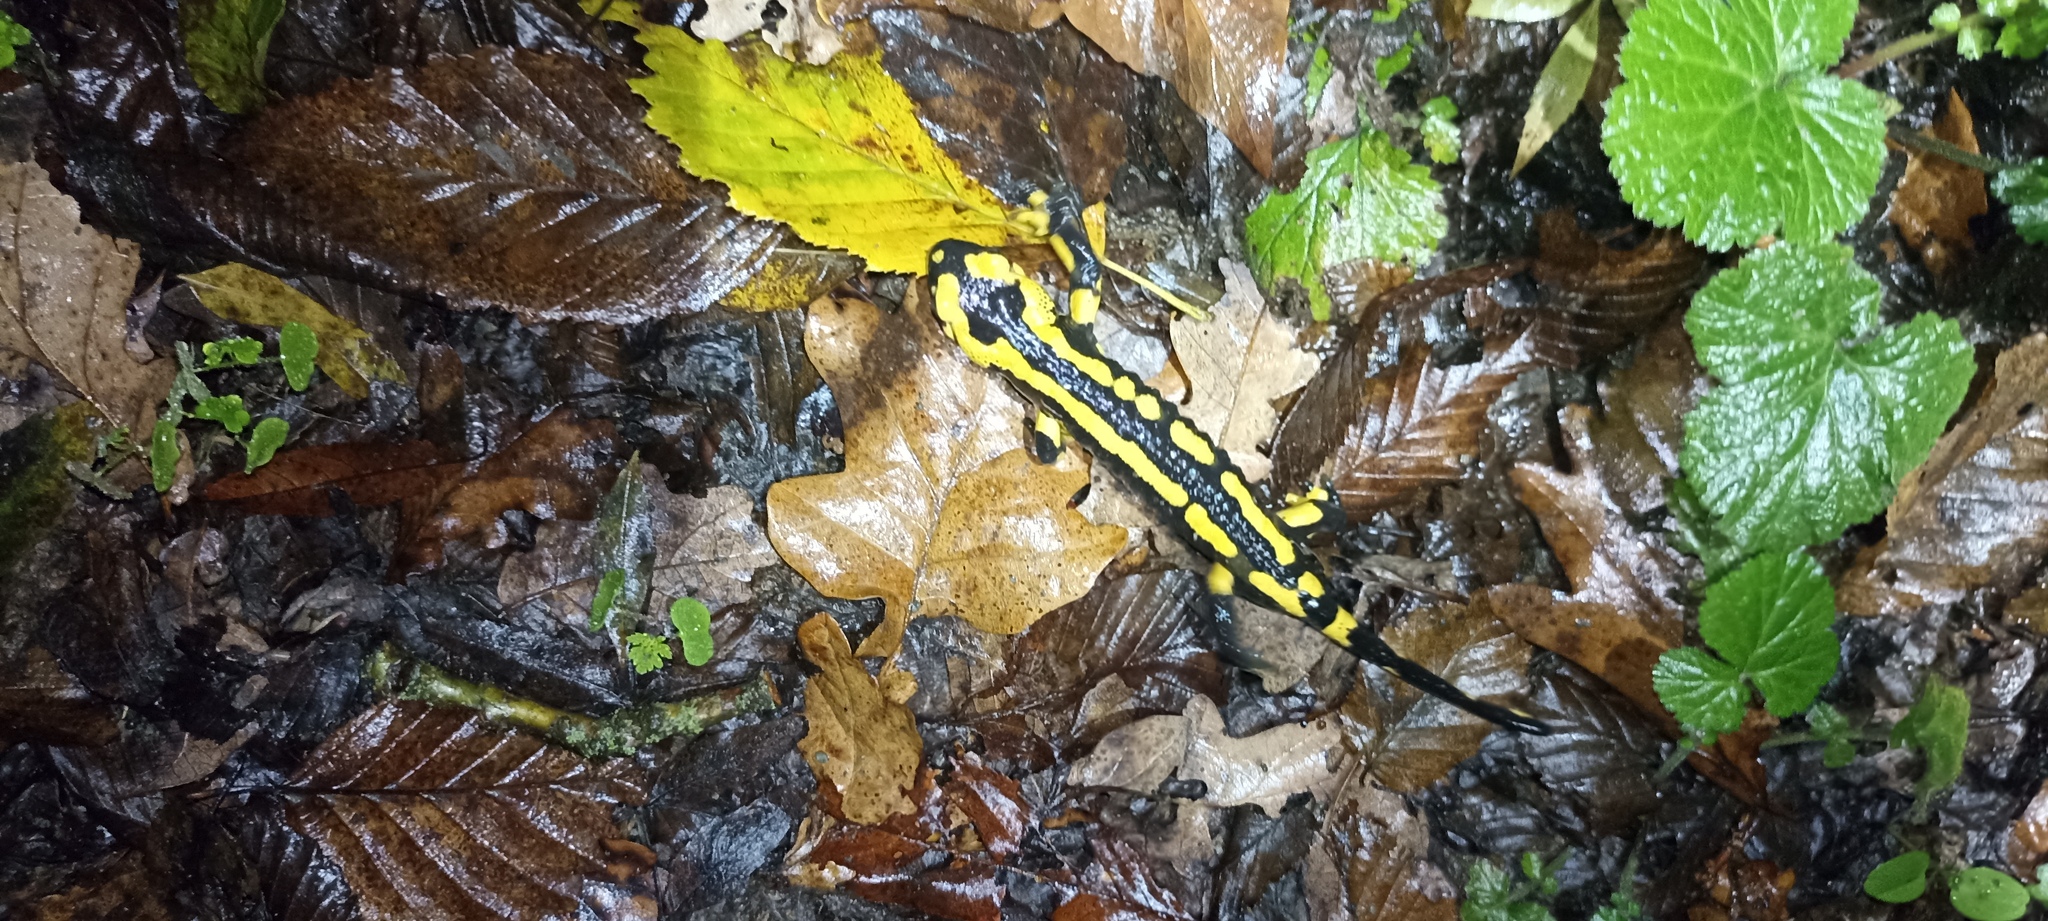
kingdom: Animalia
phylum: Chordata
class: Amphibia
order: Caudata
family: Salamandridae
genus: Salamandra
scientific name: Salamandra salamandra
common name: Fire salamander
